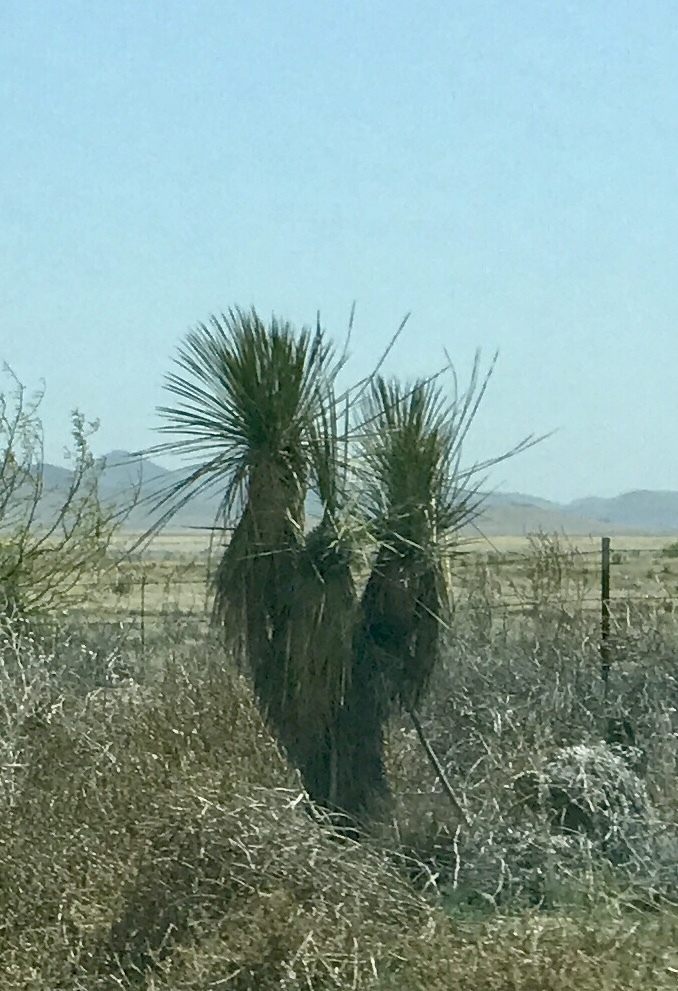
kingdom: Plantae
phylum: Tracheophyta
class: Liliopsida
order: Asparagales
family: Asparagaceae
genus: Yucca
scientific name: Yucca elata
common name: Palmella
